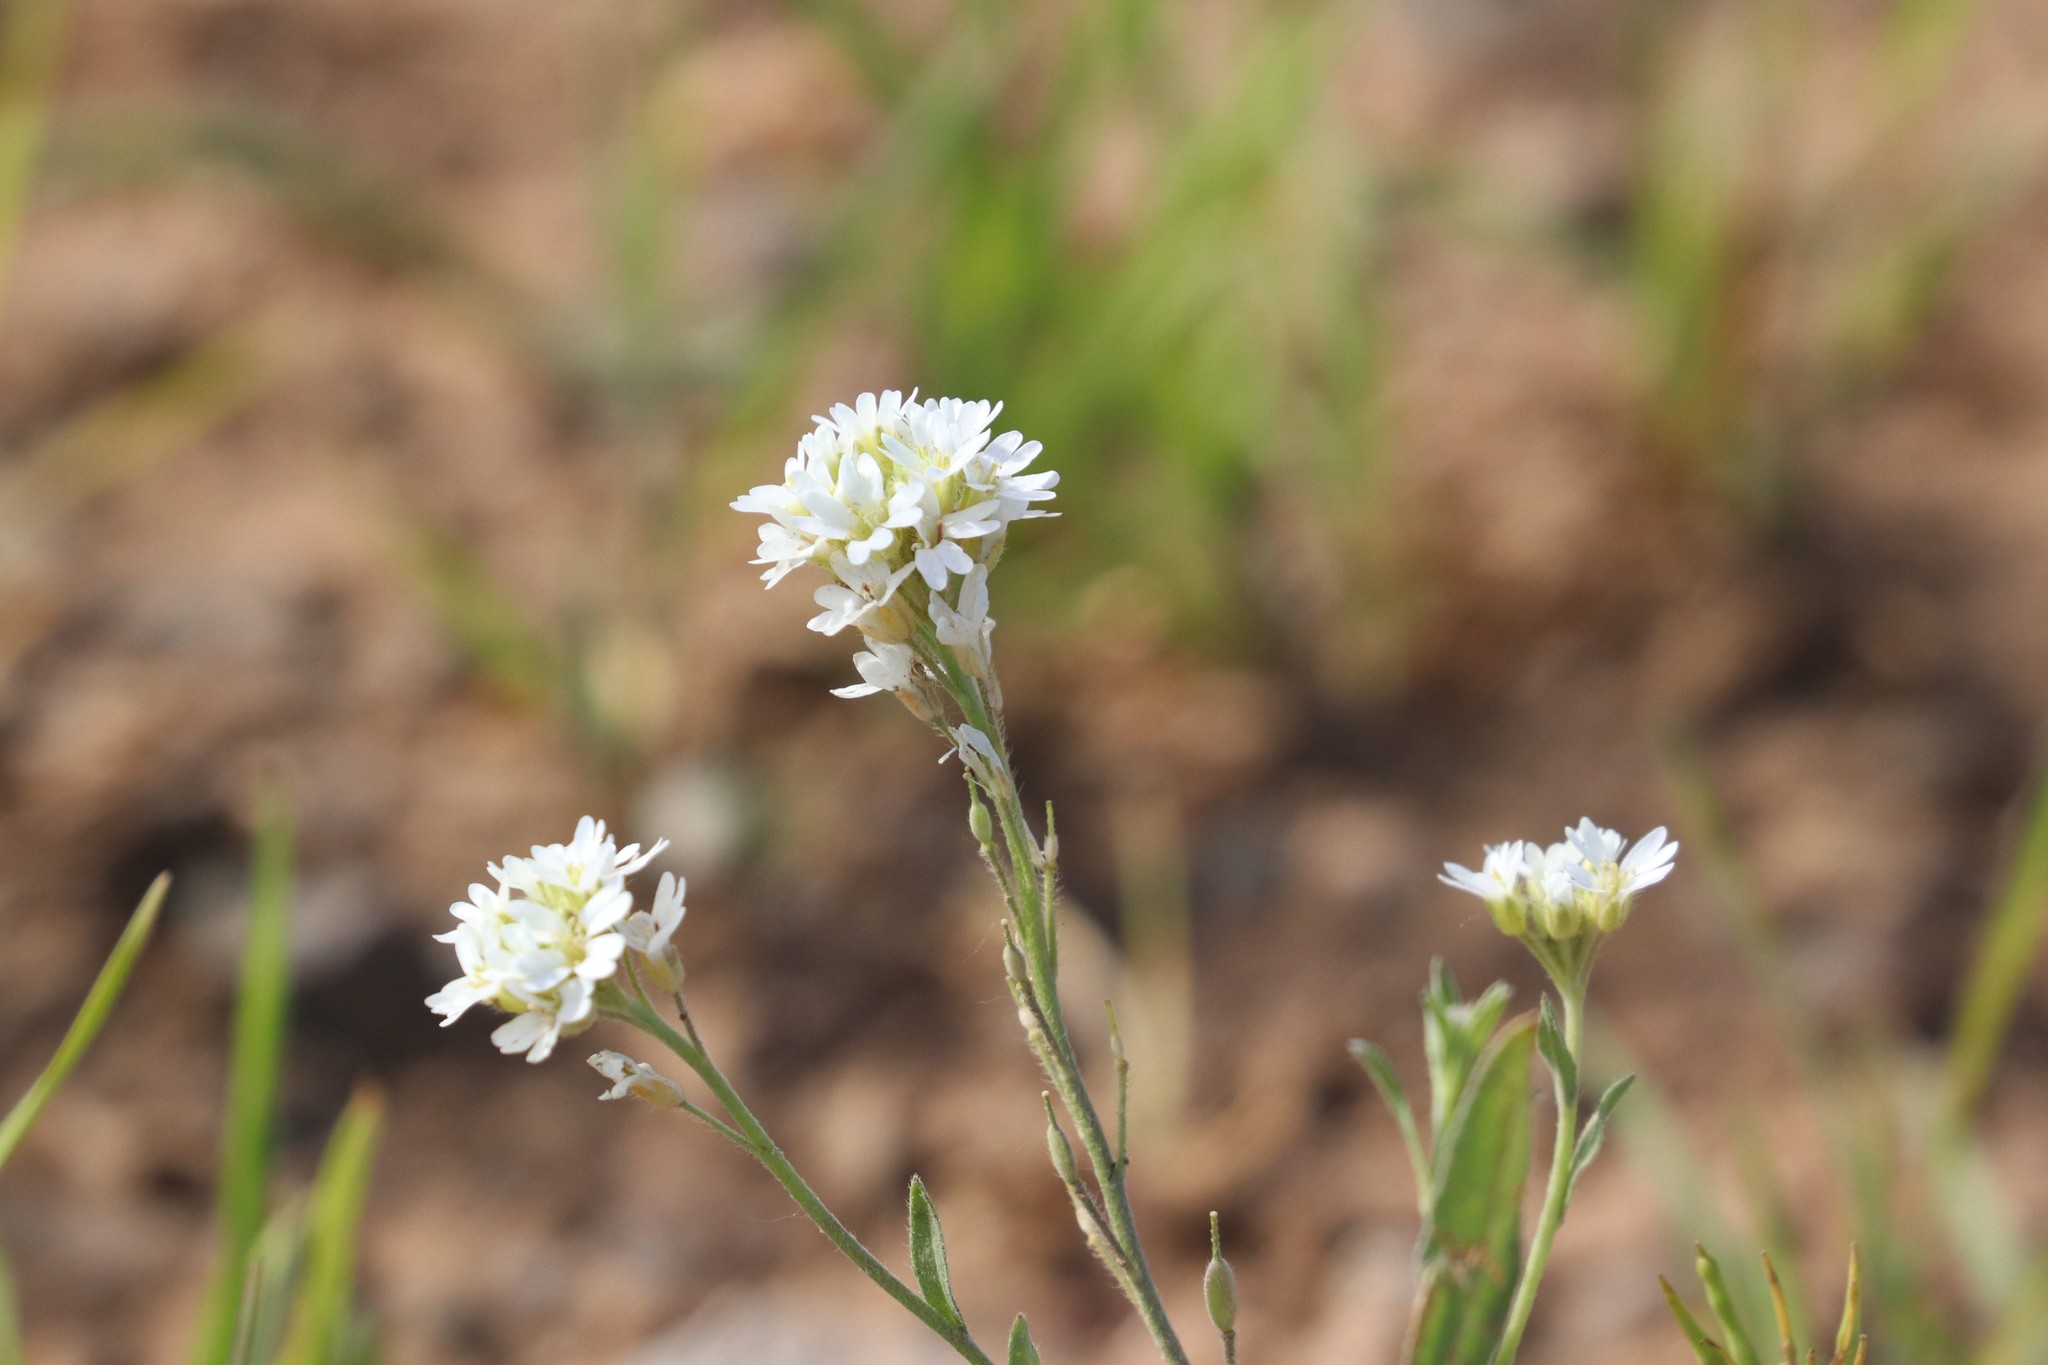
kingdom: Plantae
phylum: Tracheophyta
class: Magnoliopsida
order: Brassicales
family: Brassicaceae
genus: Berteroa
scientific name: Berteroa incana
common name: Hoary alison
